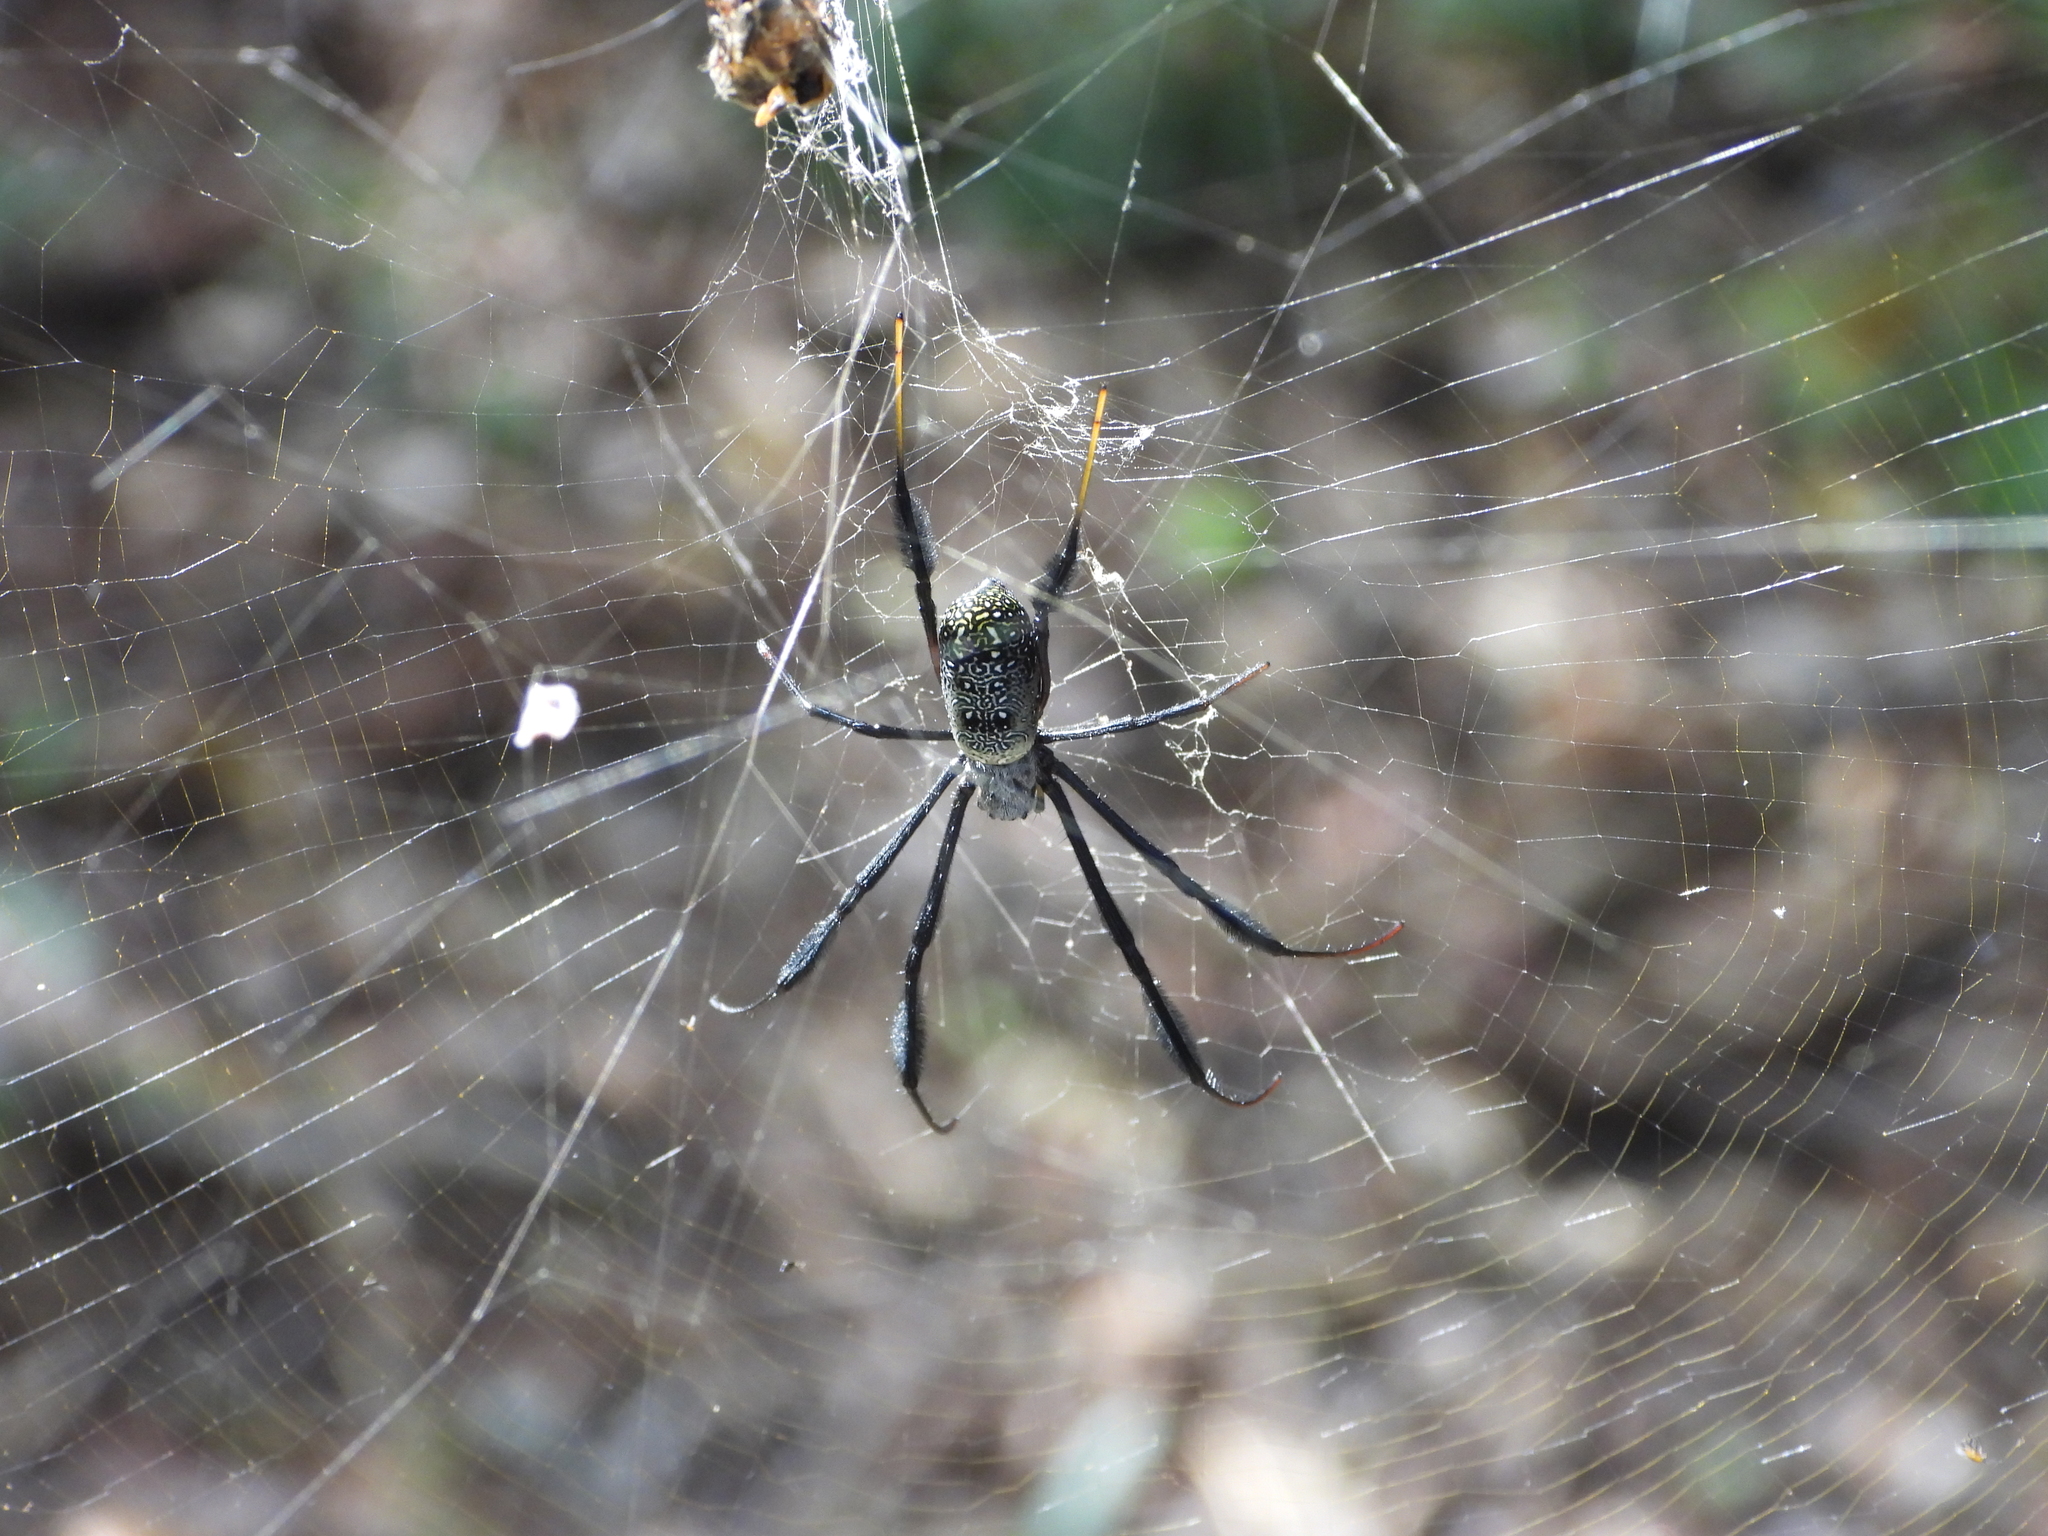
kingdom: Animalia
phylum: Arthropoda
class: Arachnida
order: Araneae
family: Araneidae
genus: Trichonephila
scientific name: Trichonephila fenestrata
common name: Hairy golden orb weaver
